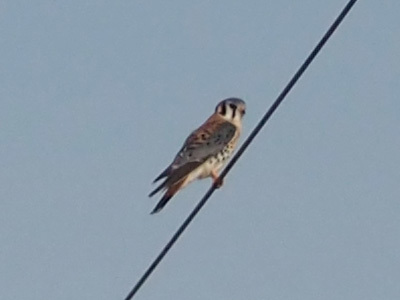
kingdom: Animalia
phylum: Chordata
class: Aves
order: Falconiformes
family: Falconidae
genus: Falco
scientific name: Falco sparverius
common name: American kestrel
